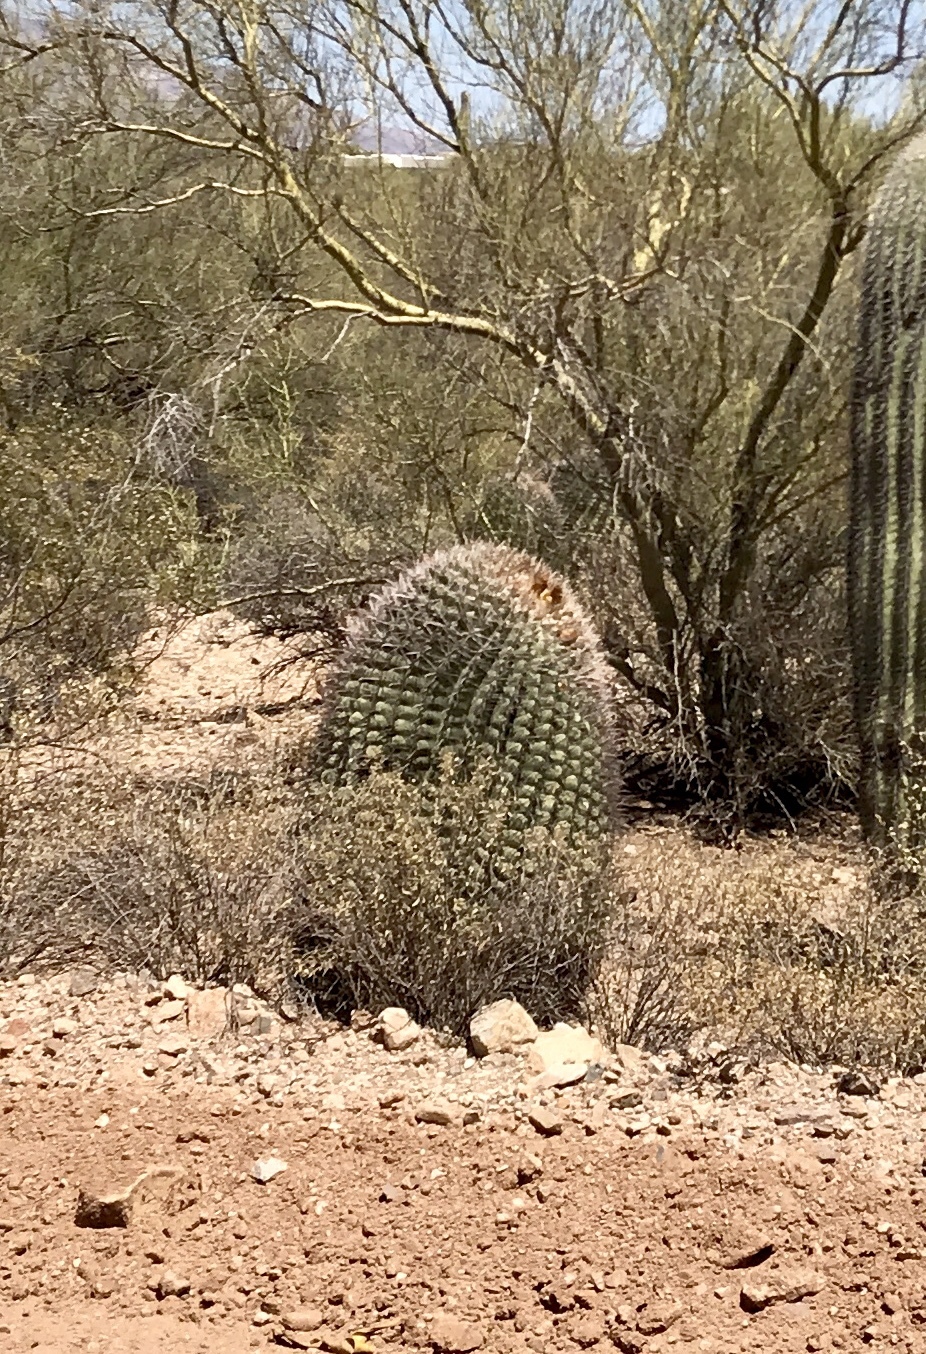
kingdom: Plantae
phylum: Tracheophyta
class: Magnoliopsida
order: Caryophyllales
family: Cactaceae
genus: Ferocactus
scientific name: Ferocactus wislizeni
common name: Candy barrel cactus
